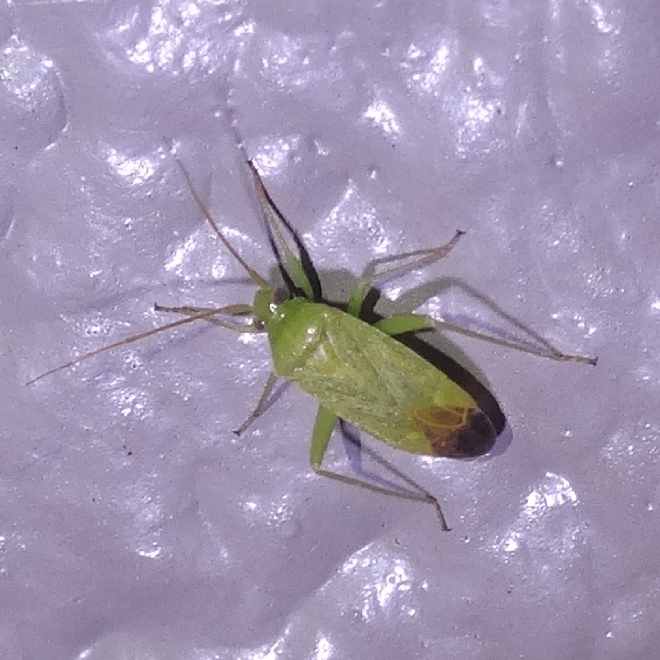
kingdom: Animalia
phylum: Arthropoda
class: Insecta
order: Hemiptera
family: Miridae
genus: Phytocoris
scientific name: Phytocoris vanduzeei
